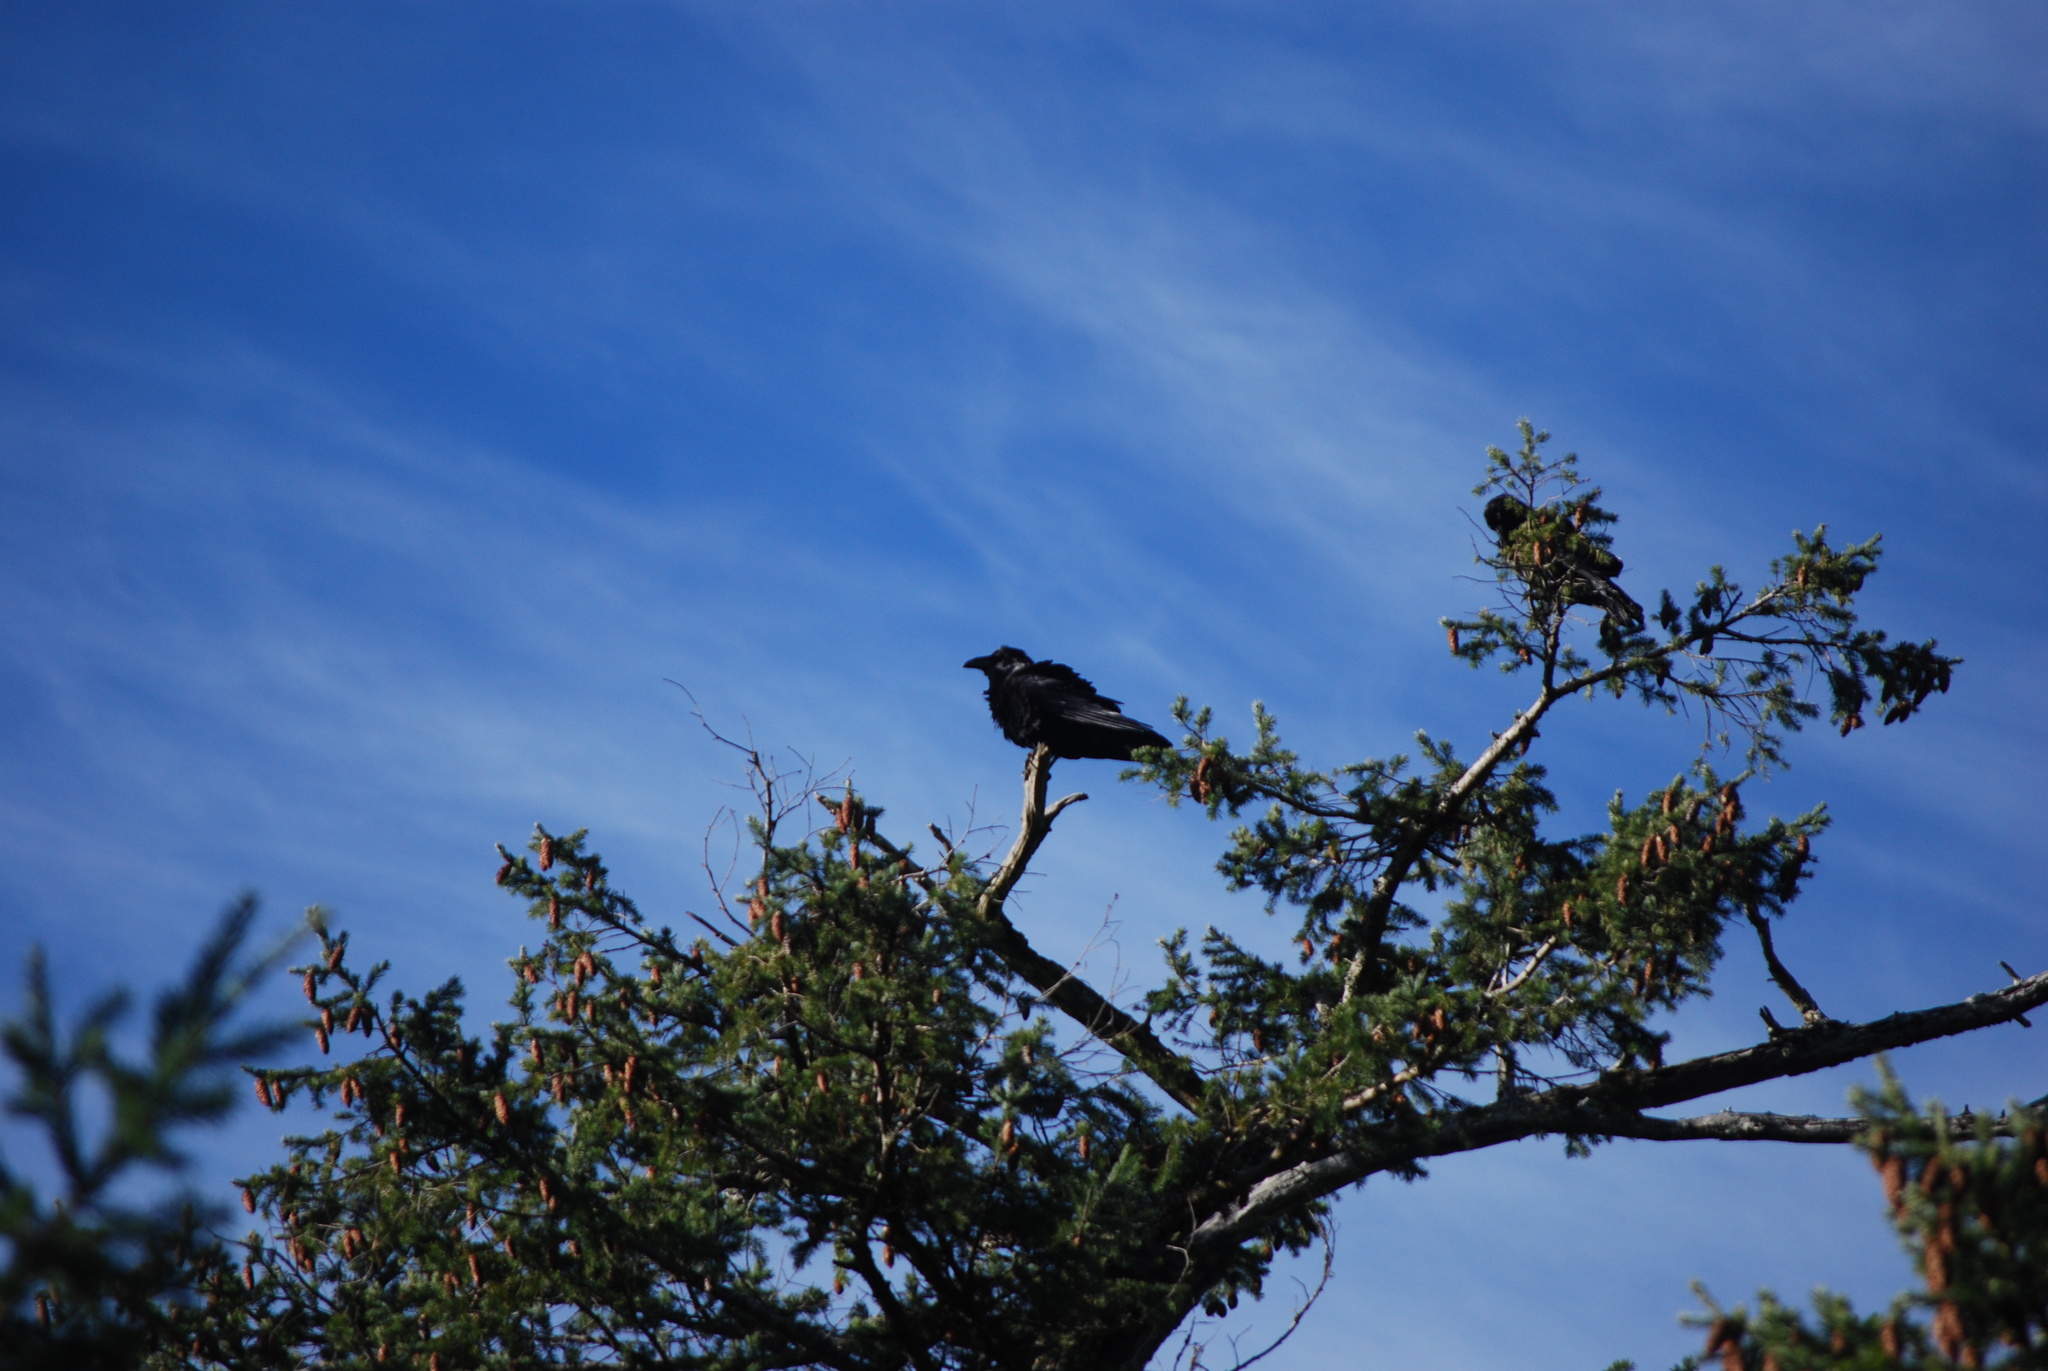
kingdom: Animalia
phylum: Chordata
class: Aves
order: Passeriformes
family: Corvidae
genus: Corvus
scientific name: Corvus corax
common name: Common raven
